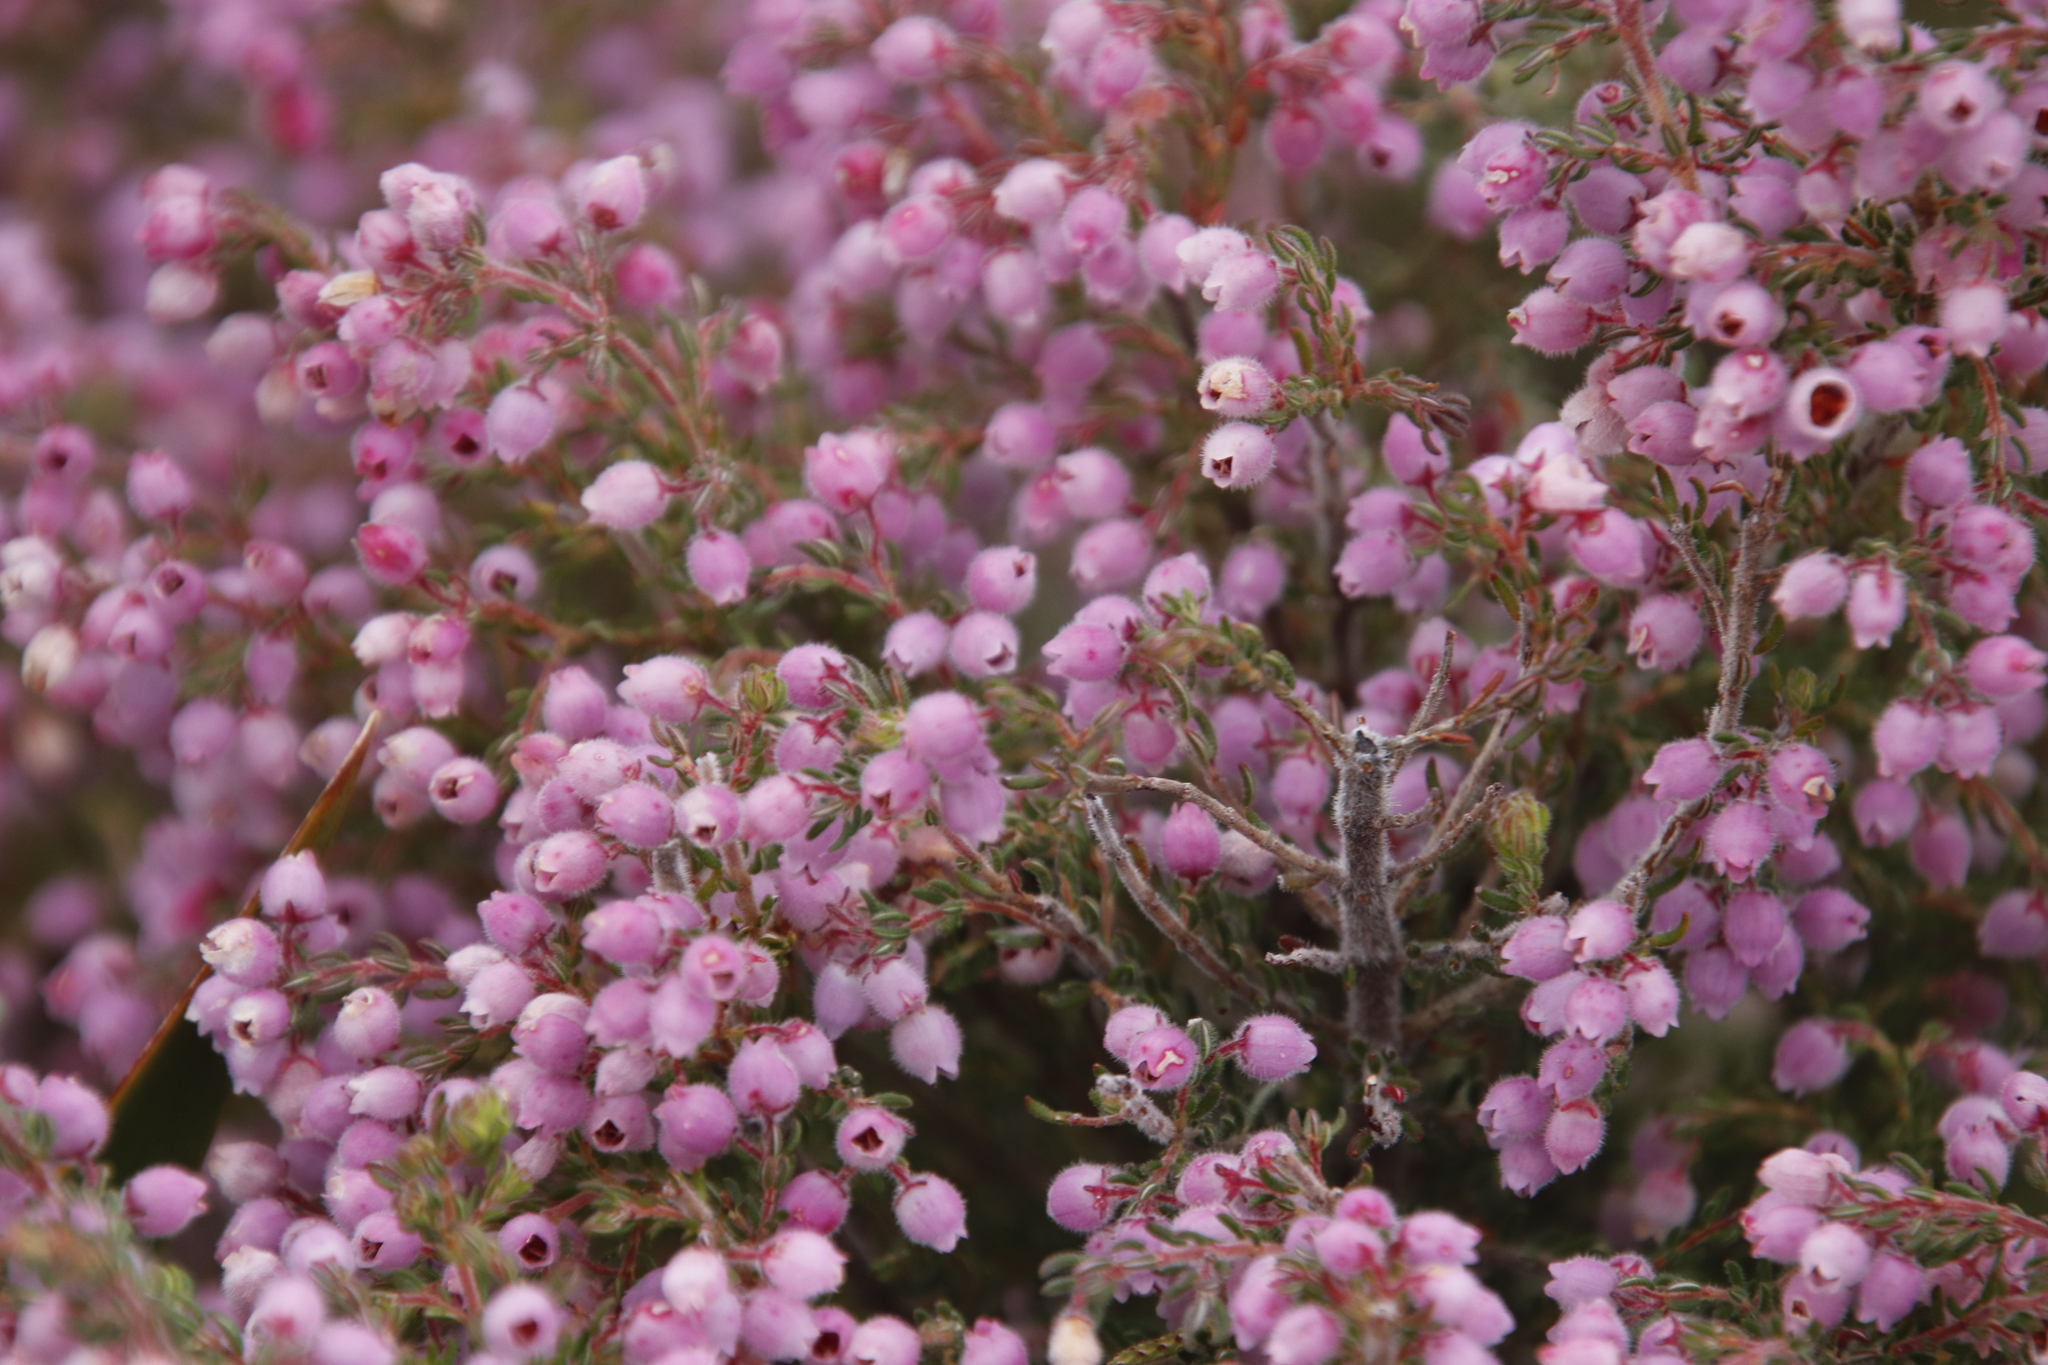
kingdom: Plantae
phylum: Tracheophyta
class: Magnoliopsida
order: Ericales
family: Ericaceae
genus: Erica
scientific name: Erica hirtiflora
